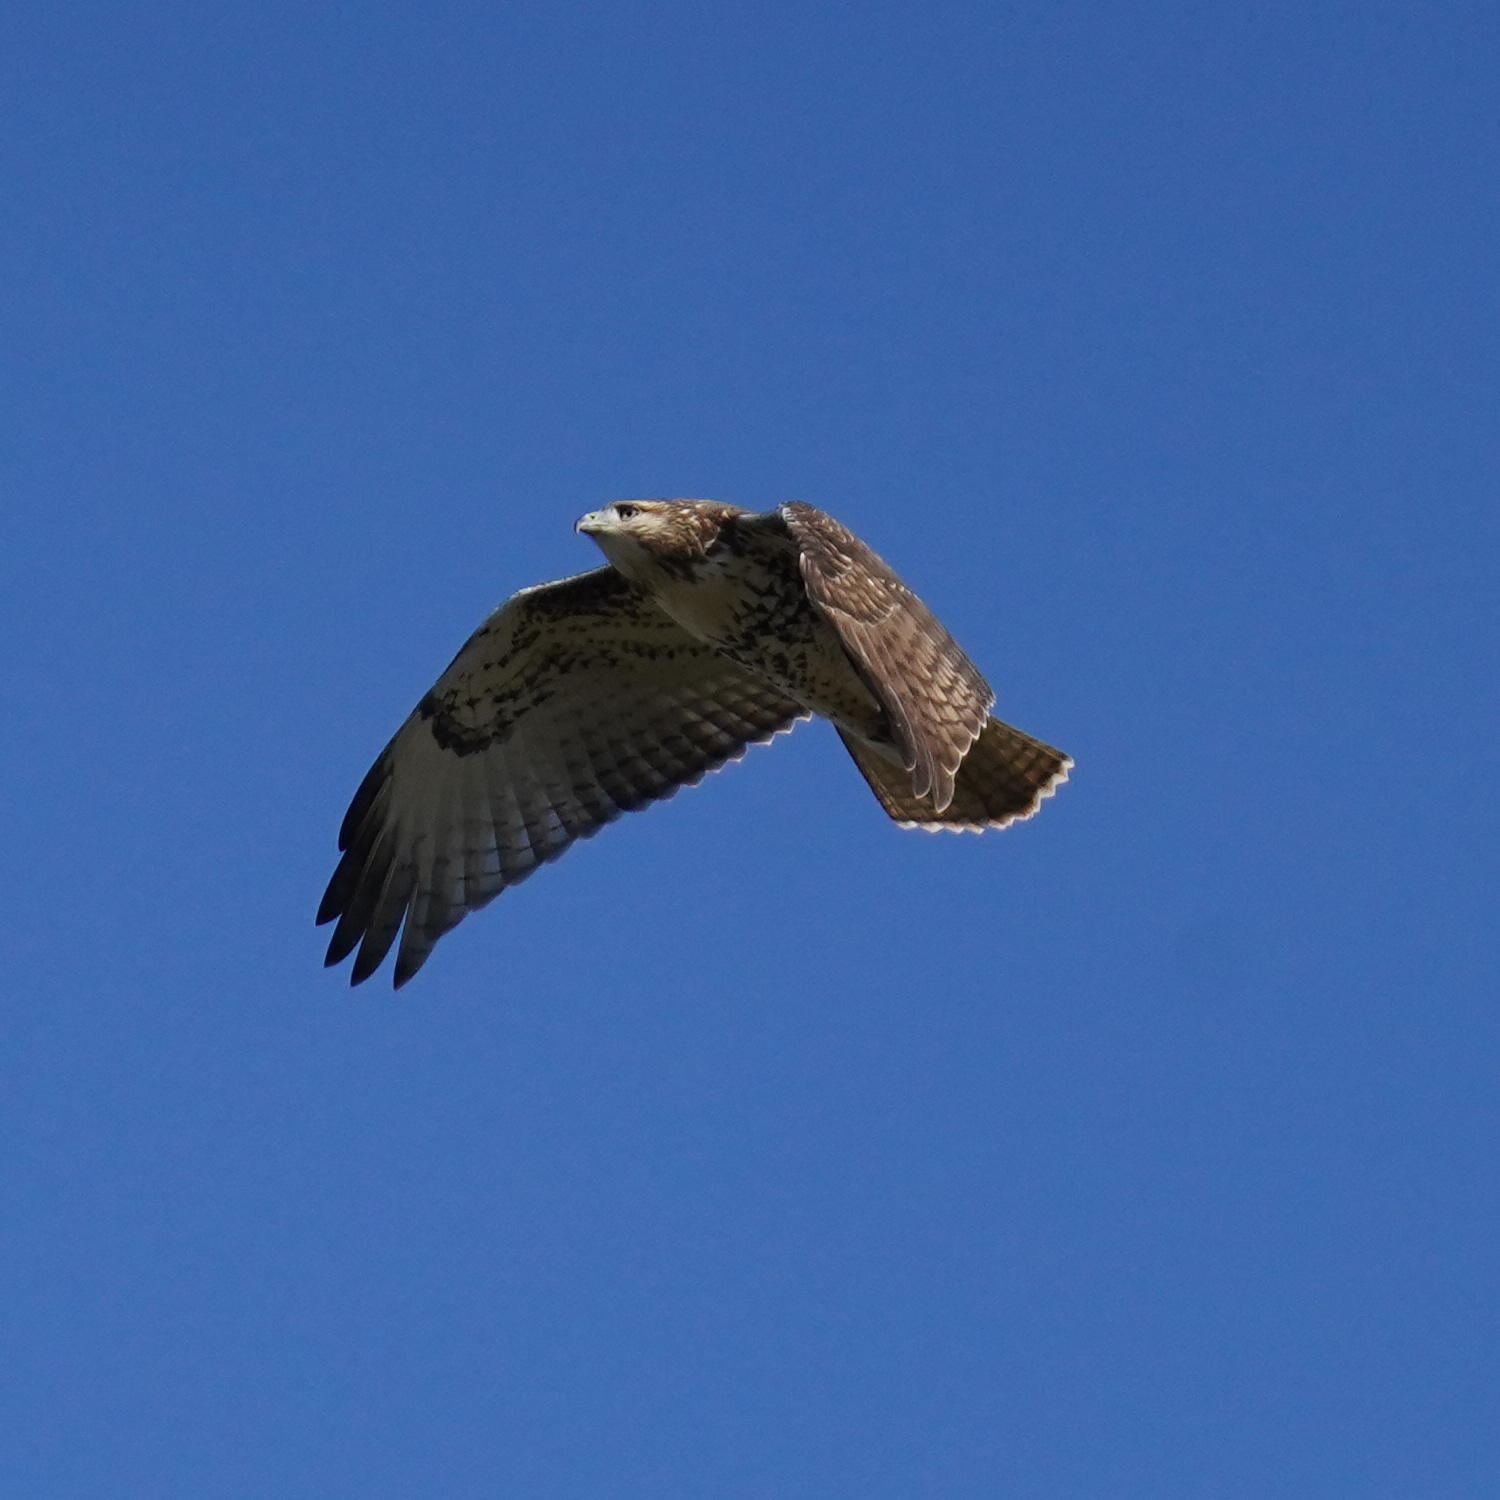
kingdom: Animalia
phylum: Chordata
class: Aves
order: Accipitriformes
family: Accipitridae
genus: Buteo
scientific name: Buteo jamaicensis
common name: Red-tailed hawk
